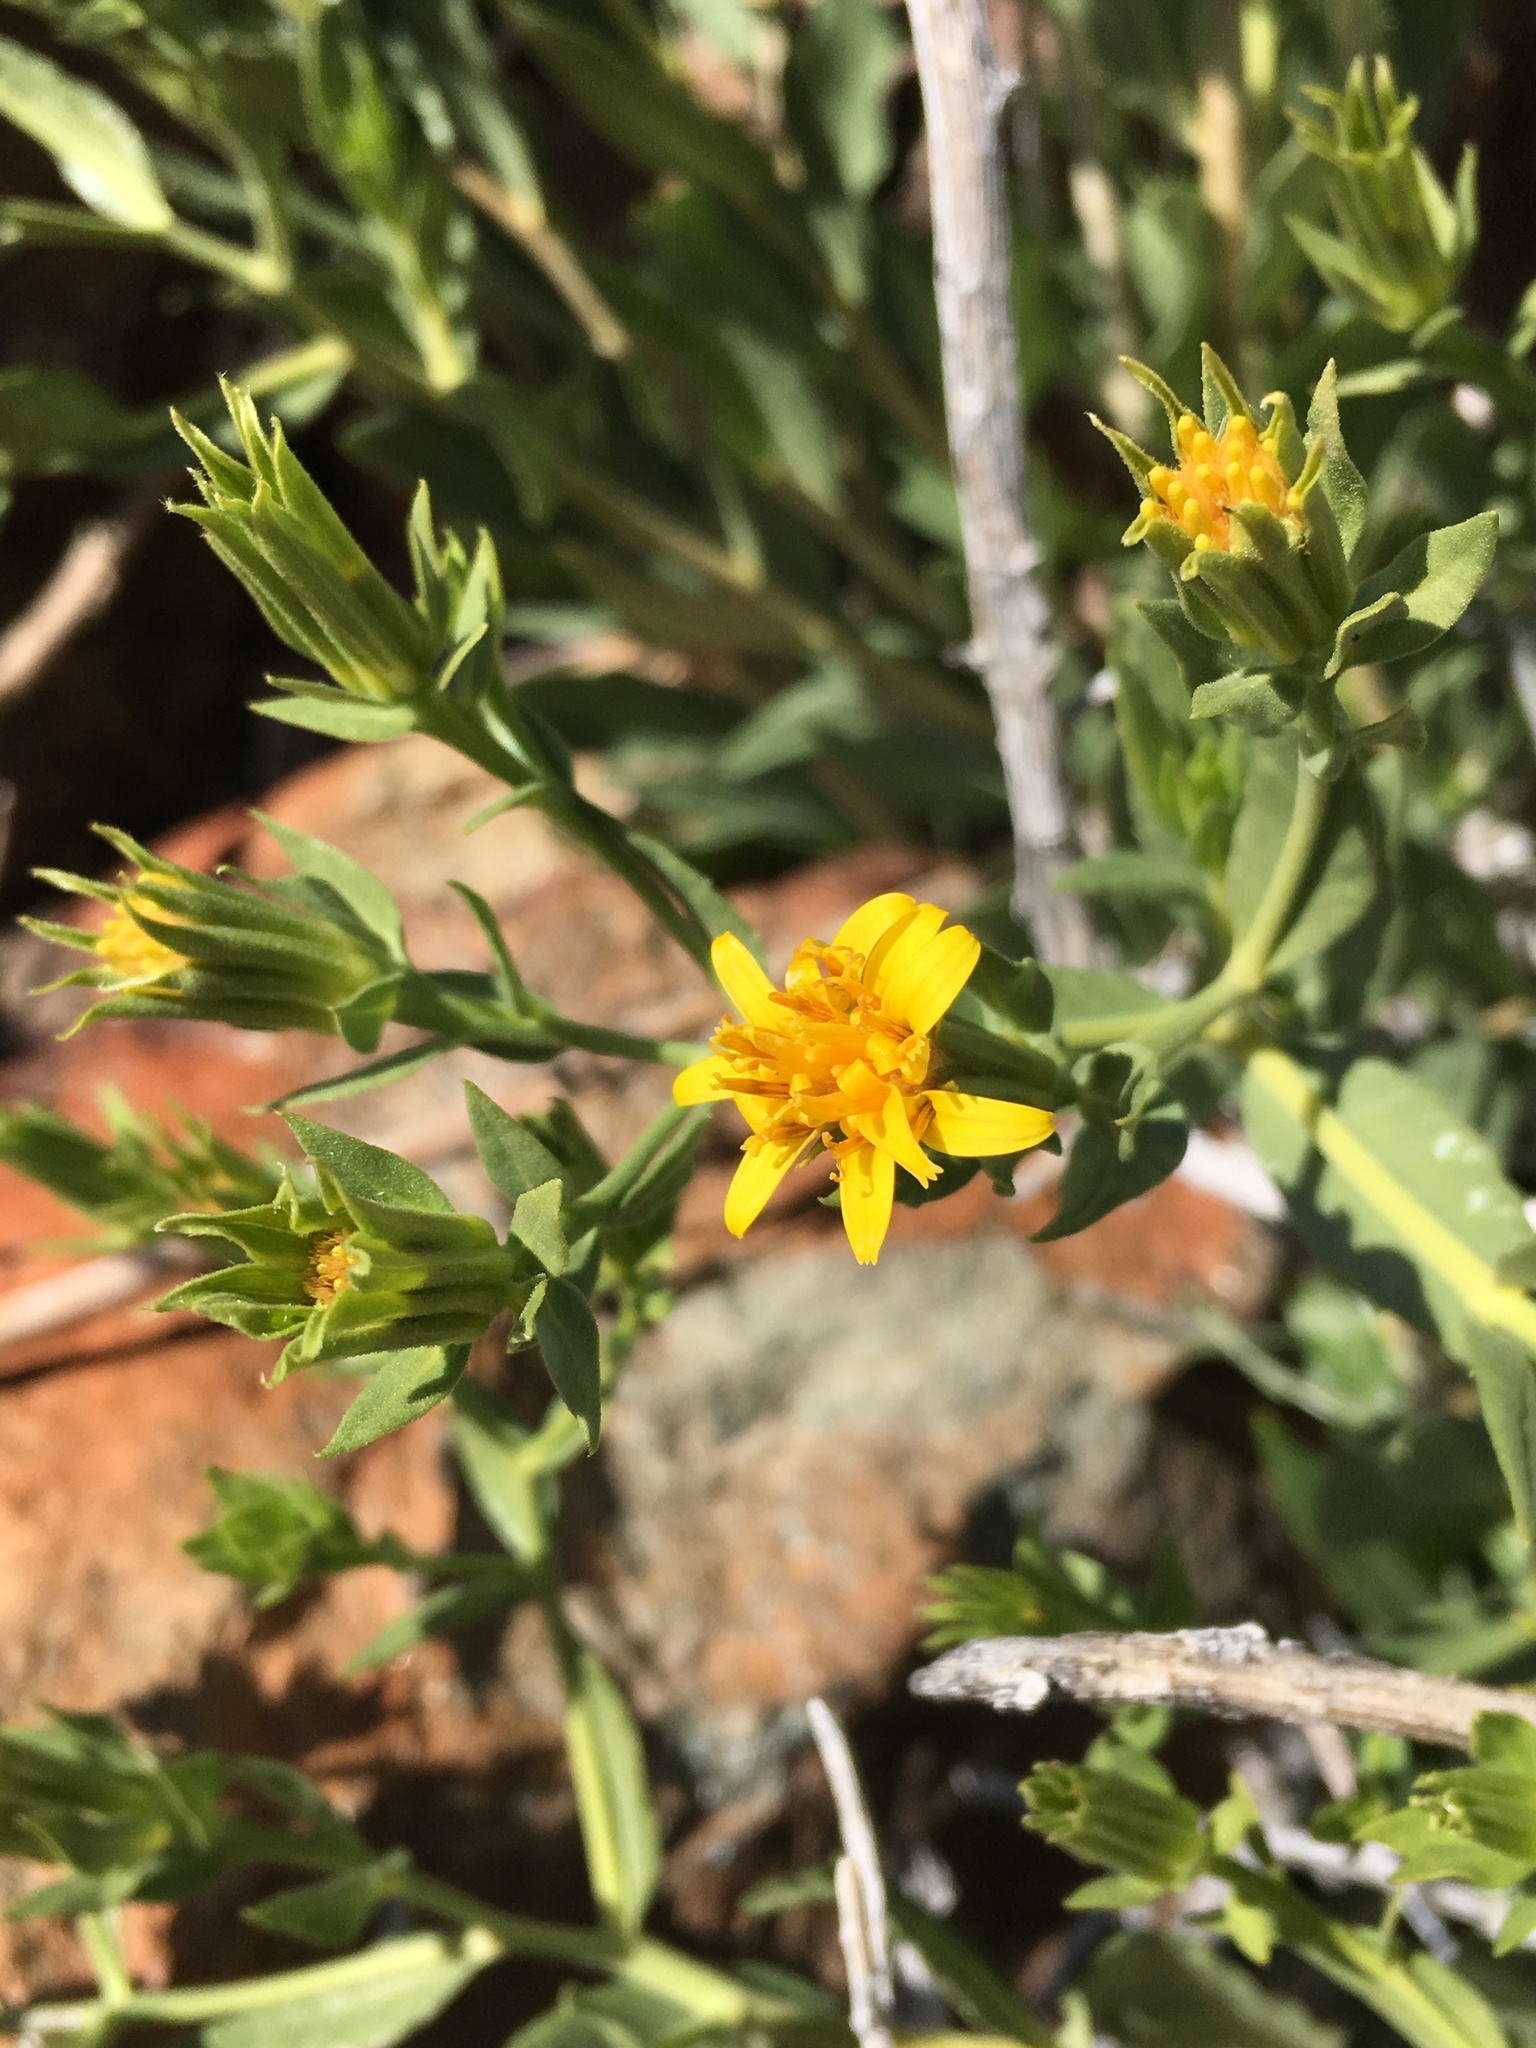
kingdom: Plantae
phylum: Tracheophyta
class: Magnoliopsida
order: Asterales
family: Asteraceae
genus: Trixis
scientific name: Trixis californica
